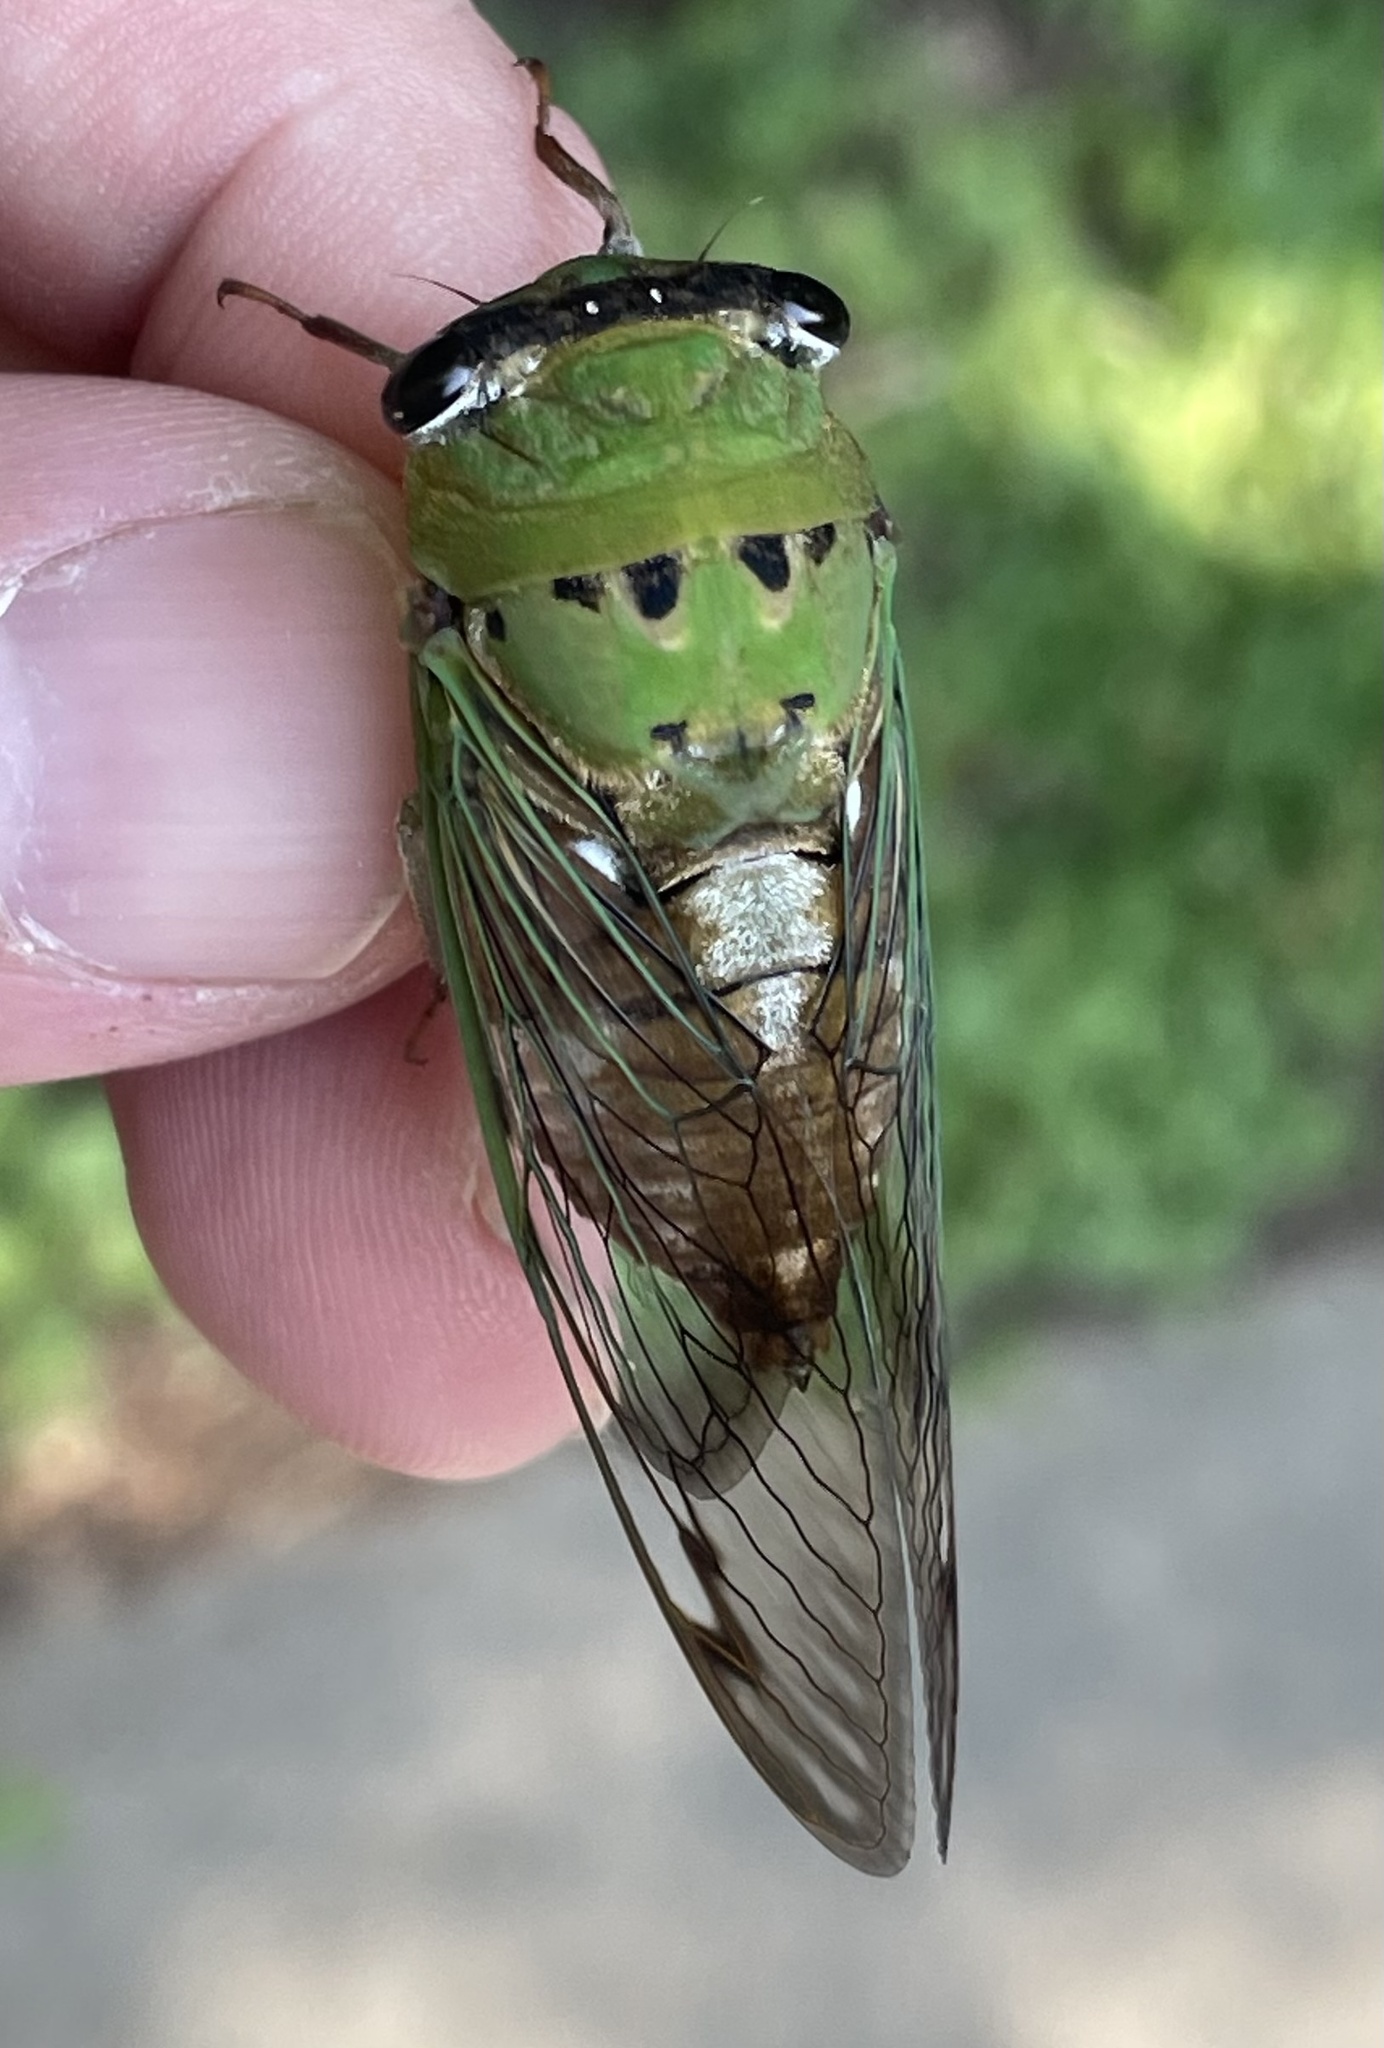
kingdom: Animalia
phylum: Arthropoda
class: Insecta
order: Hemiptera
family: Cicadidae
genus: Neotibicen
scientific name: Neotibicen superbus
